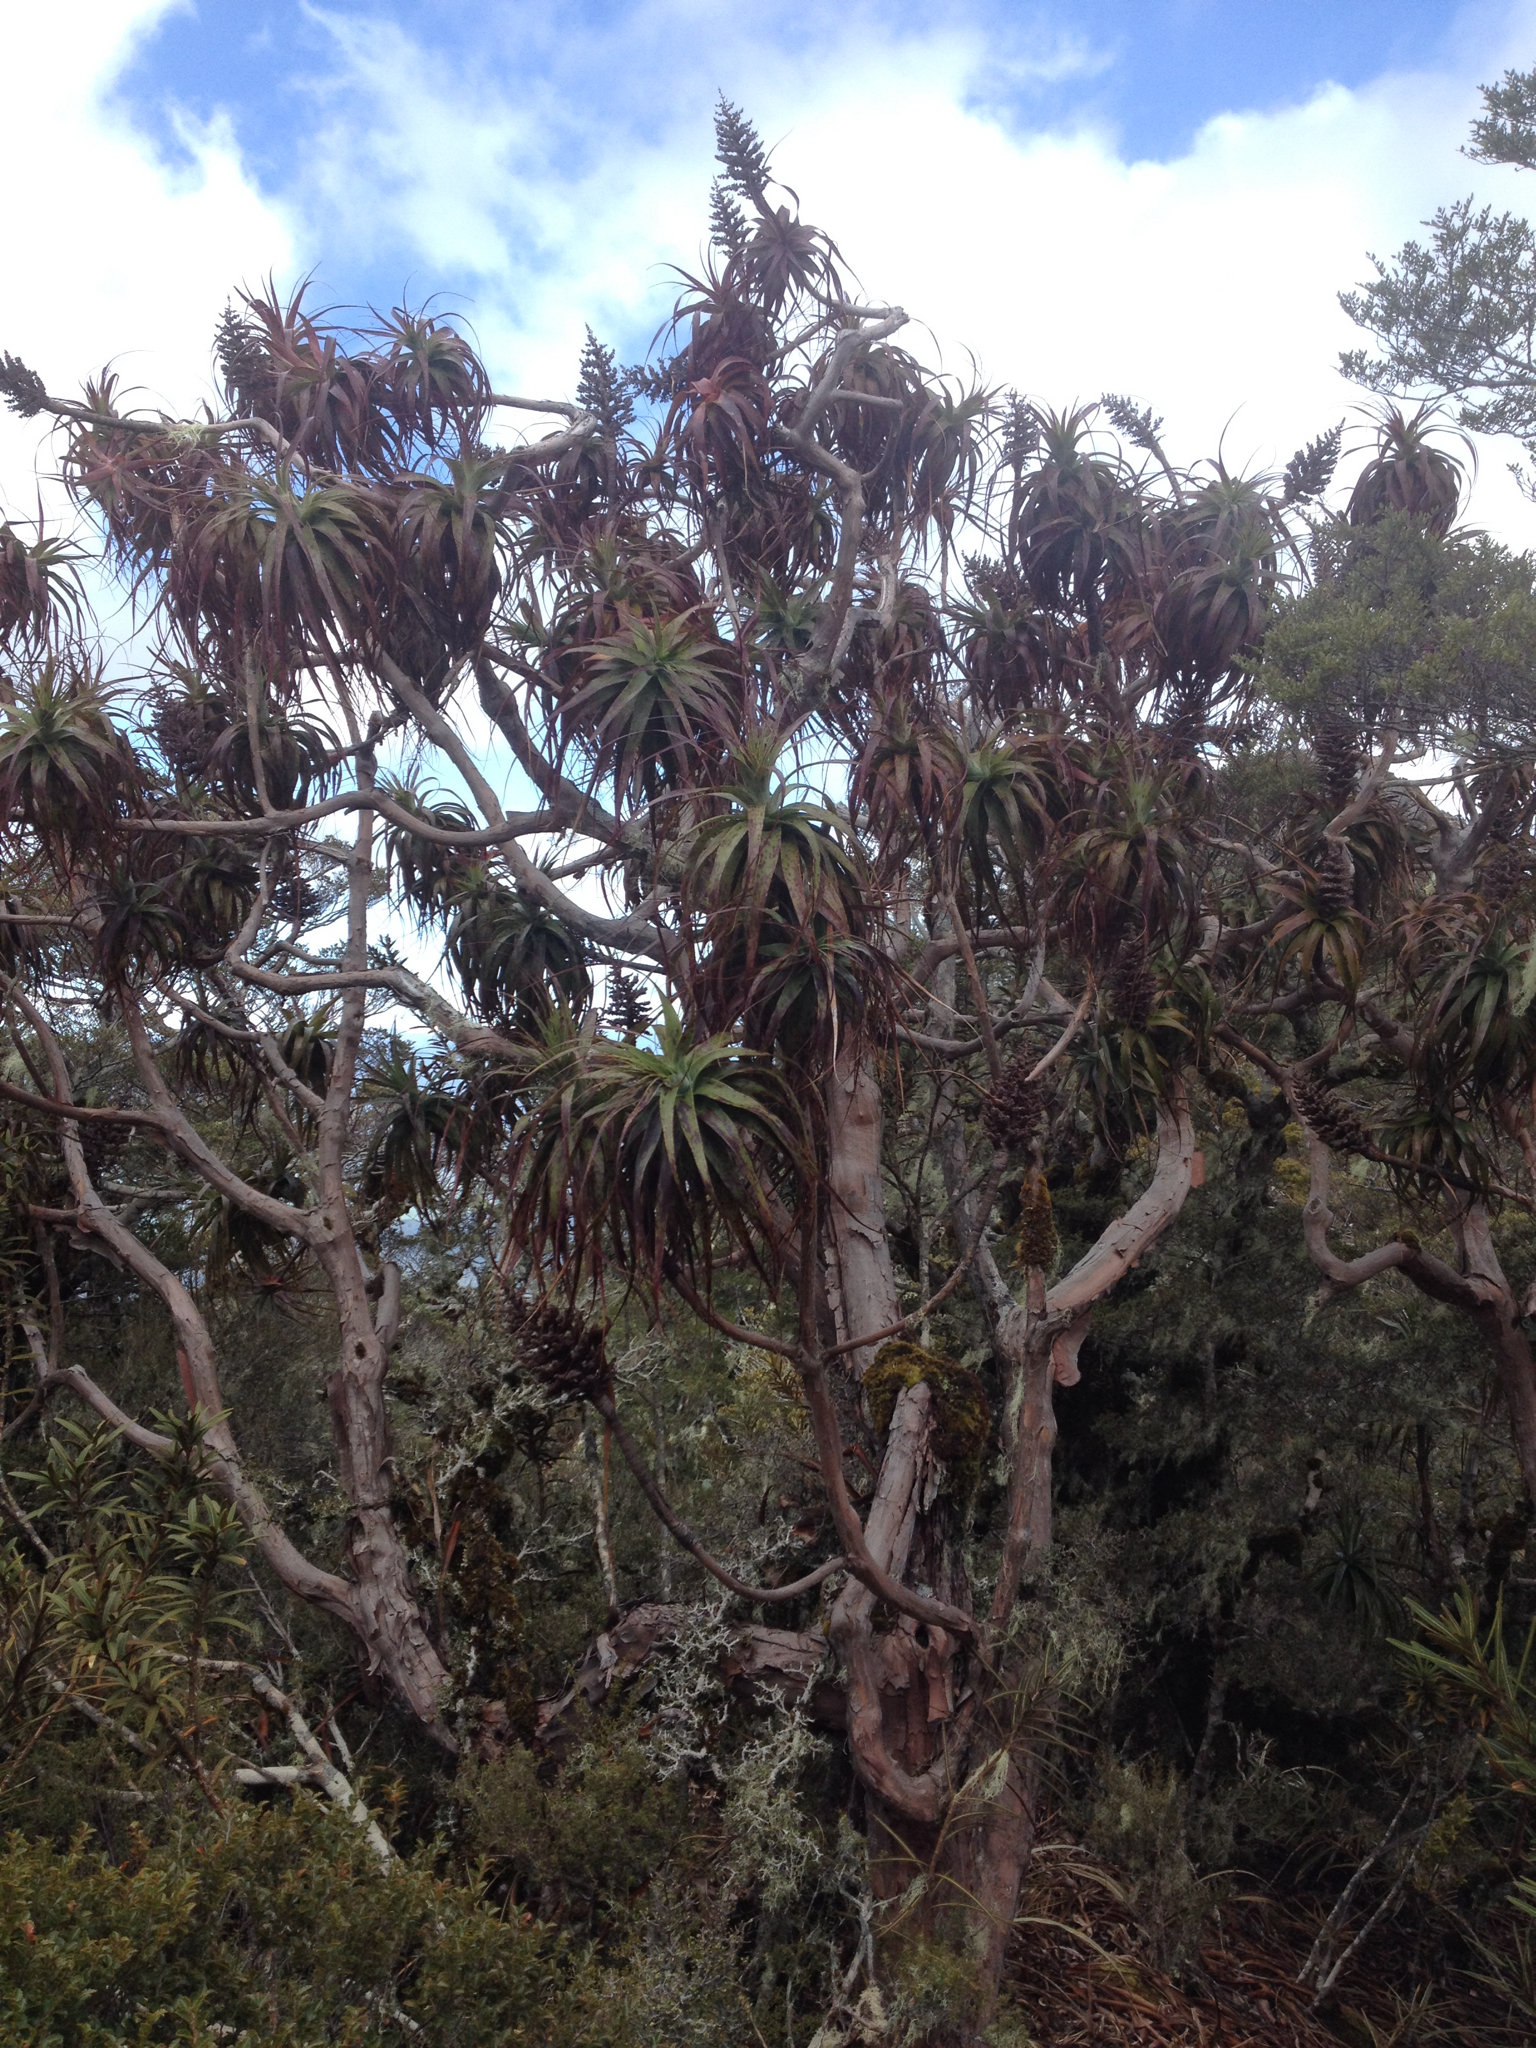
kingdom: Plantae
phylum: Tracheophyta
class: Magnoliopsida
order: Ericales
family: Ericaceae
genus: Dracophyllum
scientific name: Dracophyllum traversii
